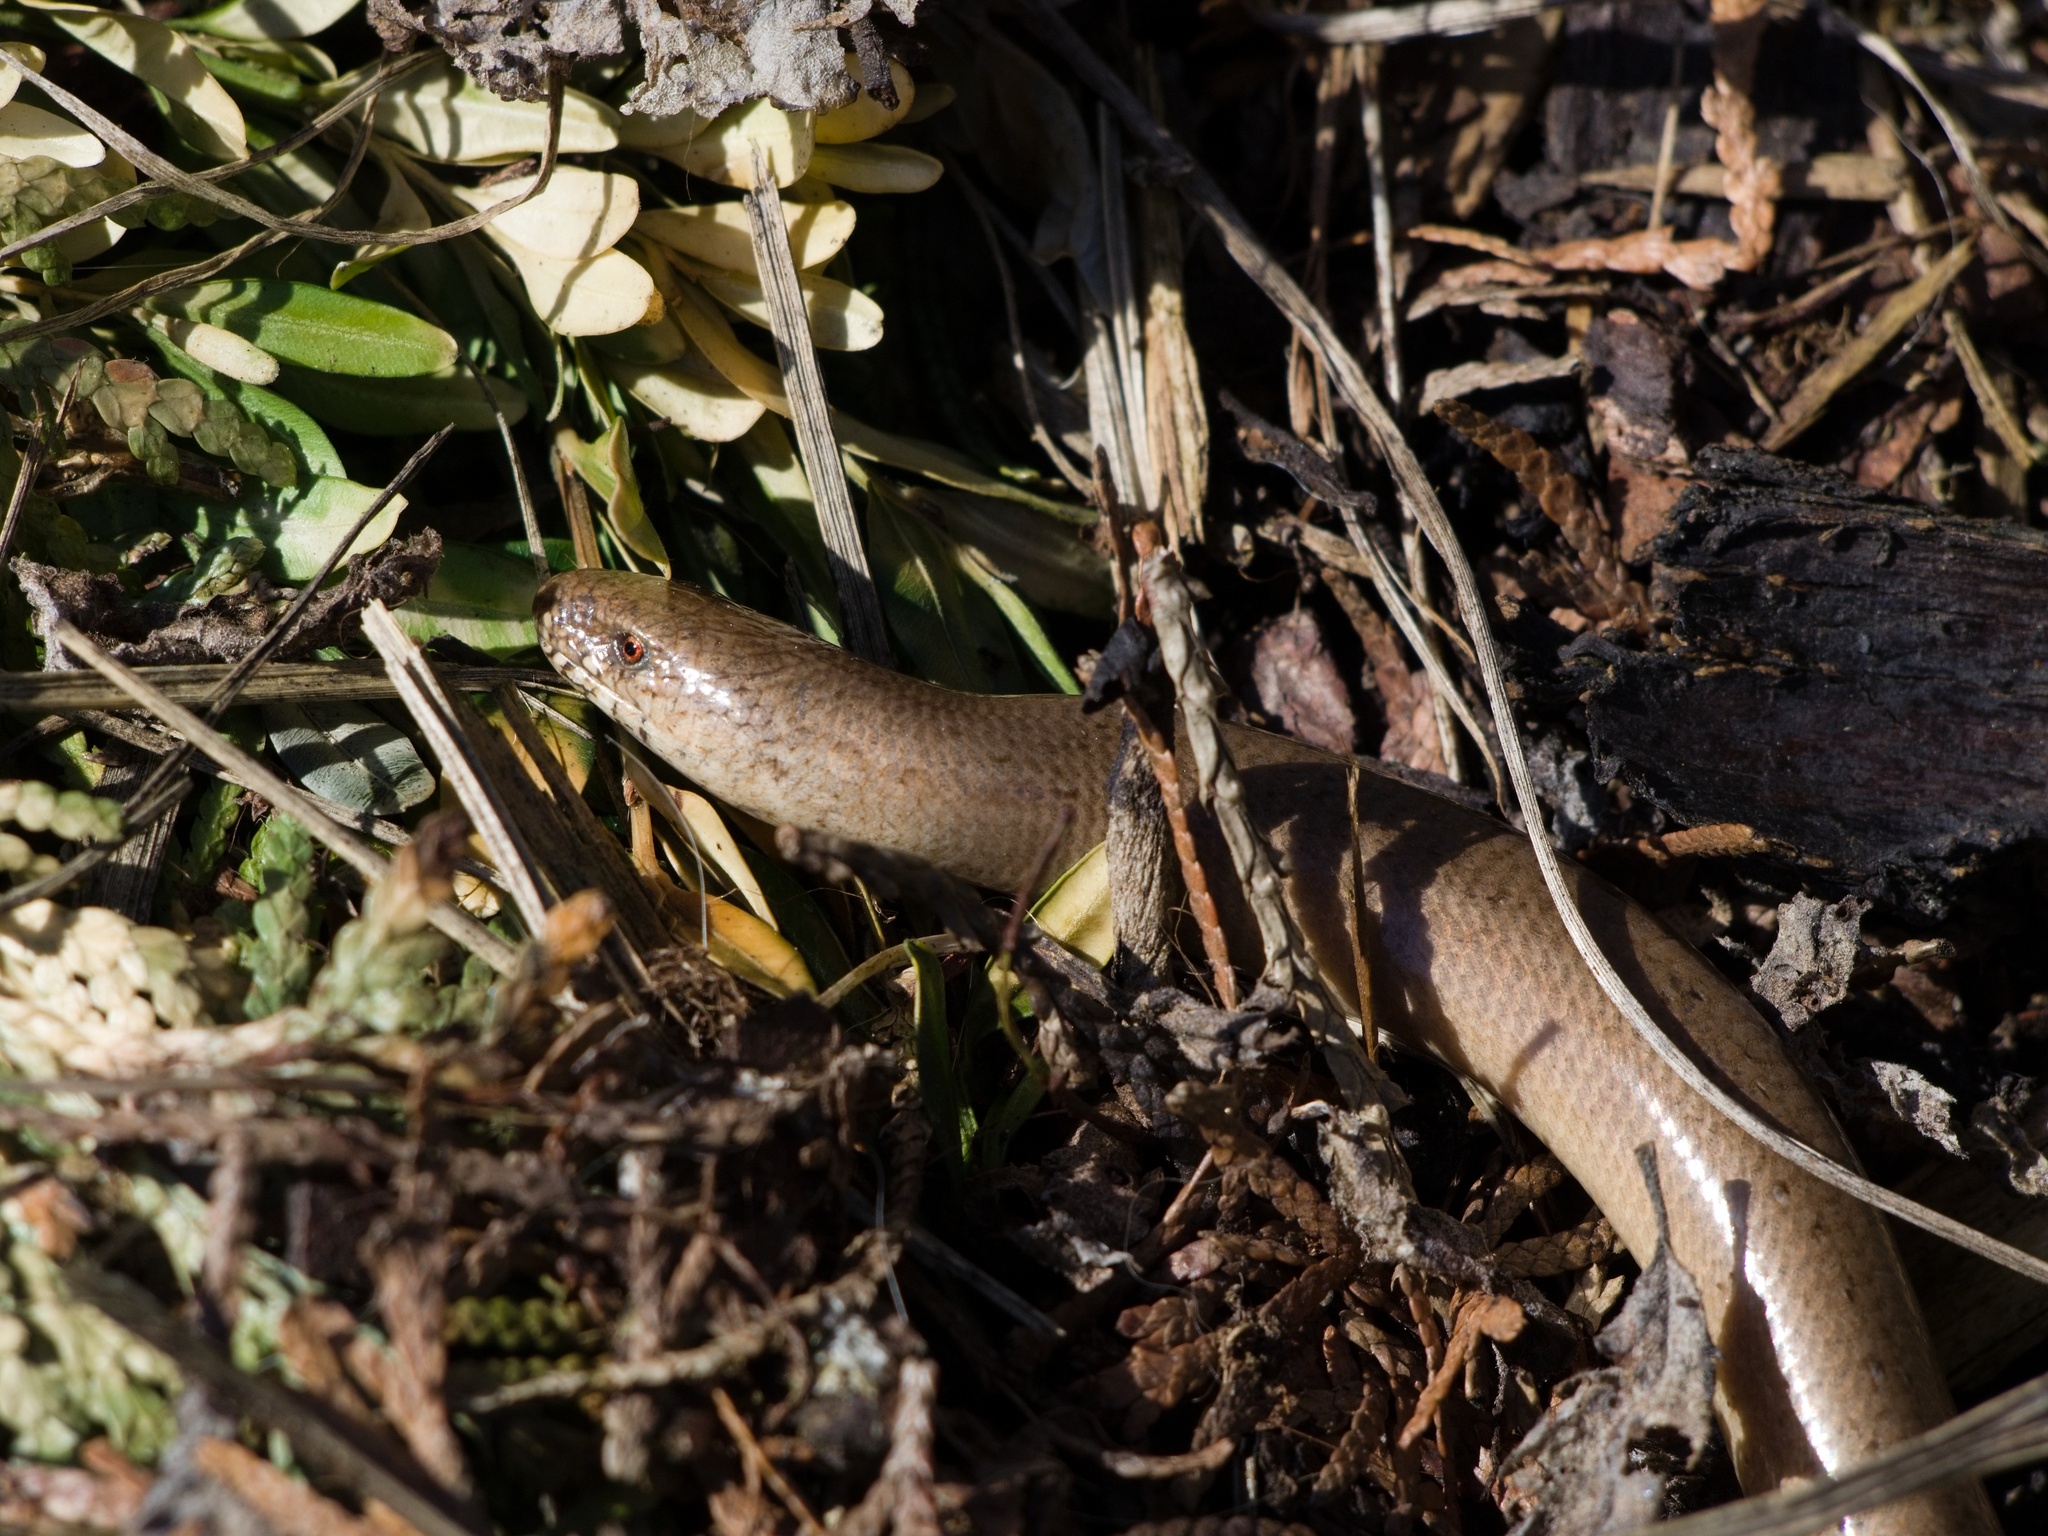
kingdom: Animalia
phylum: Chordata
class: Squamata
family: Anguidae
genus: Anguis
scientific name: Anguis fragilis
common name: Slow worm
